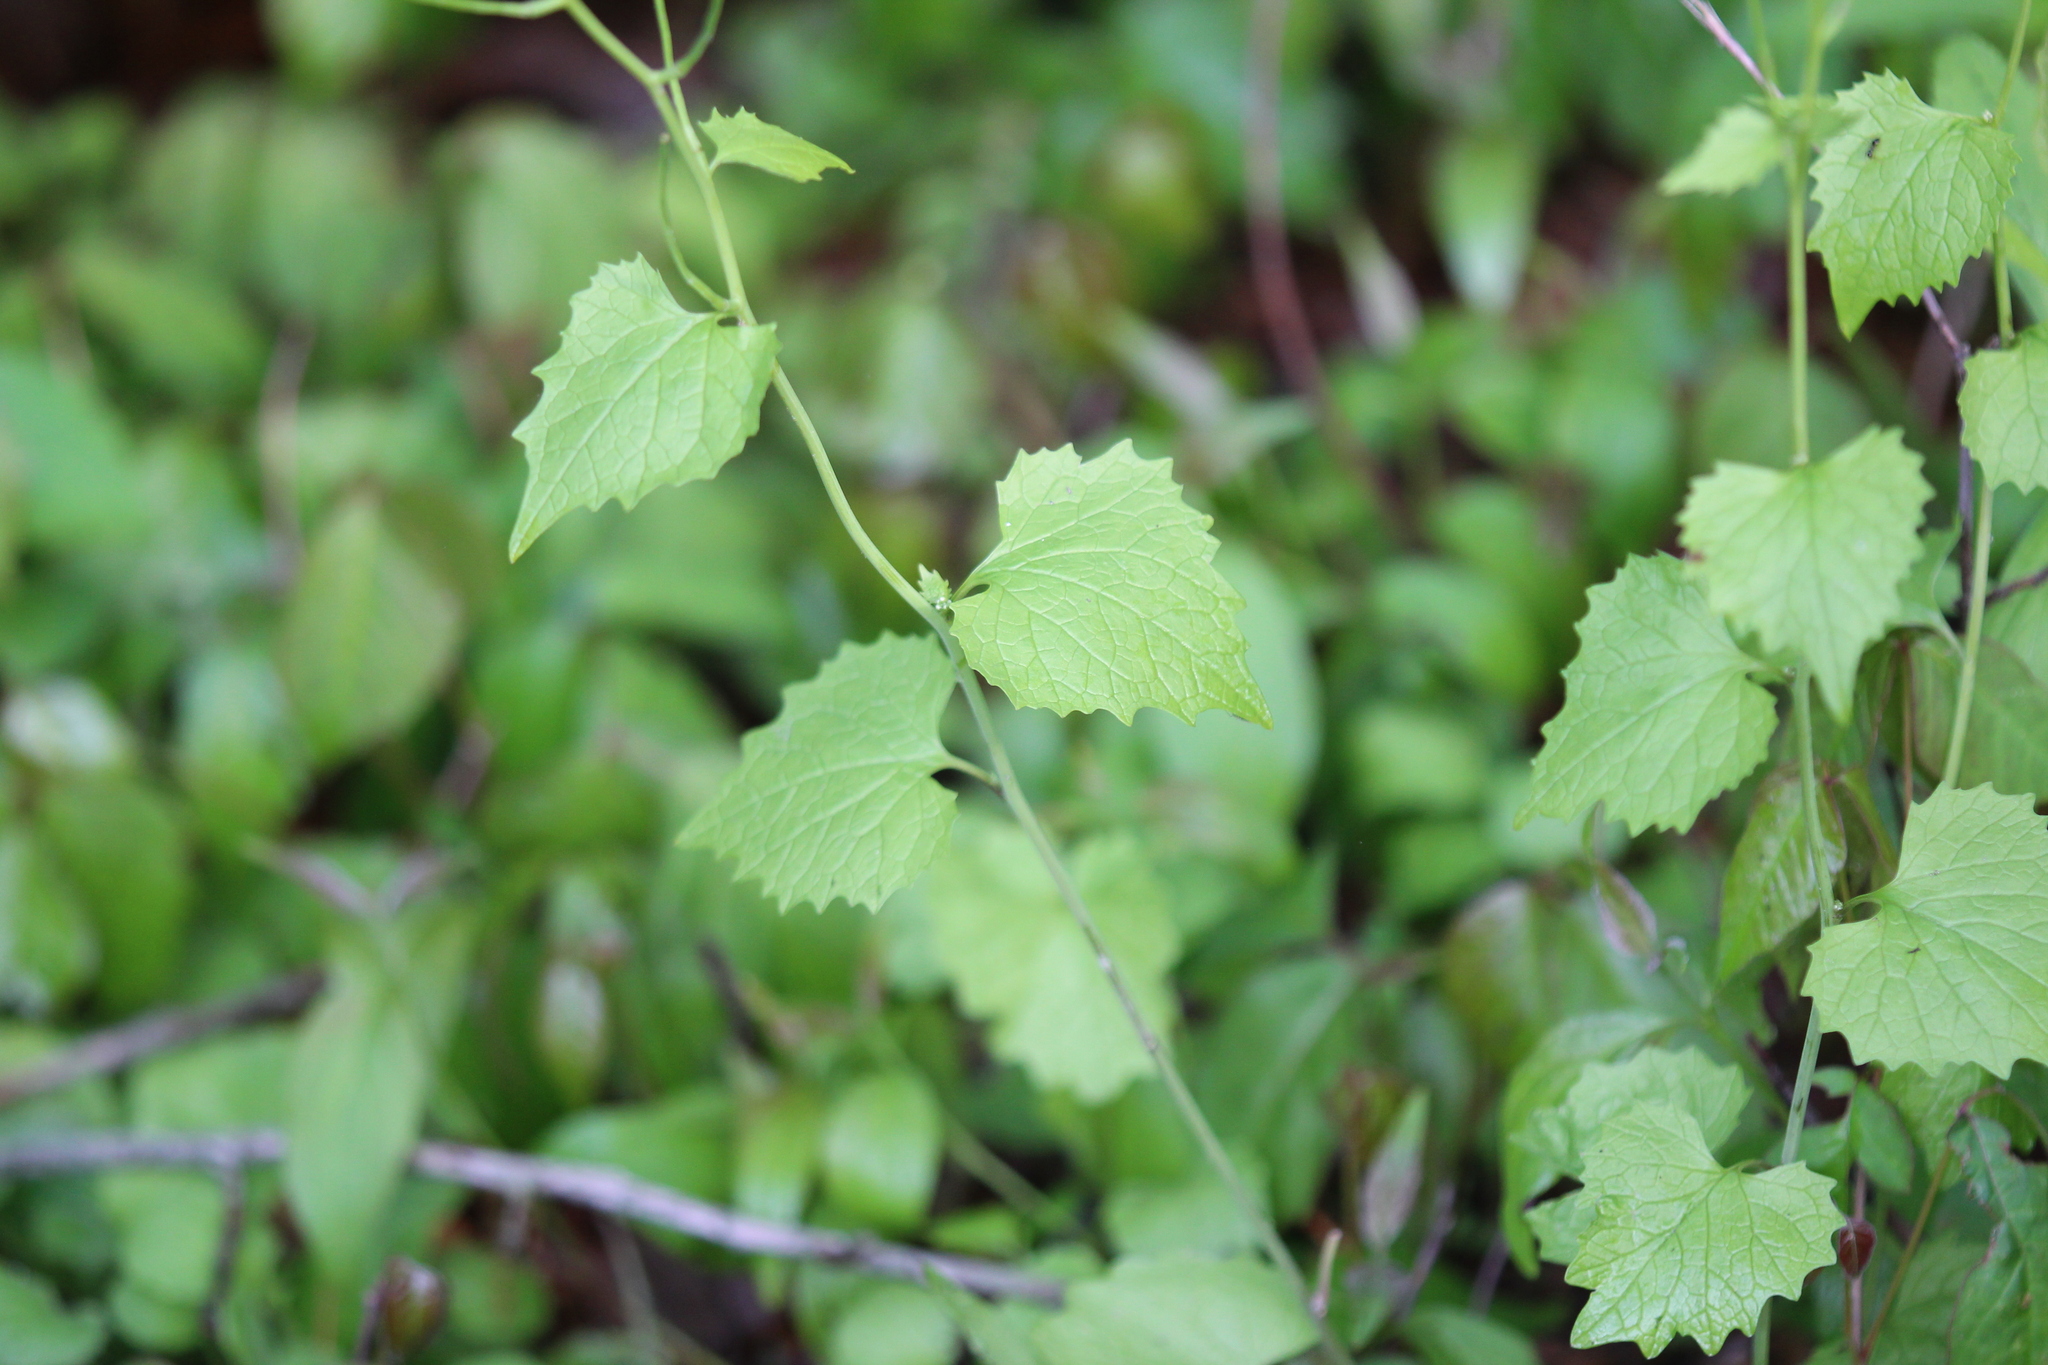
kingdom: Plantae
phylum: Tracheophyta
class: Magnoliopsida
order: Brassicales
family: Brassicaceae
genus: Alliaria
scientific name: Alliaria petiolata
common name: Garlic mustard
